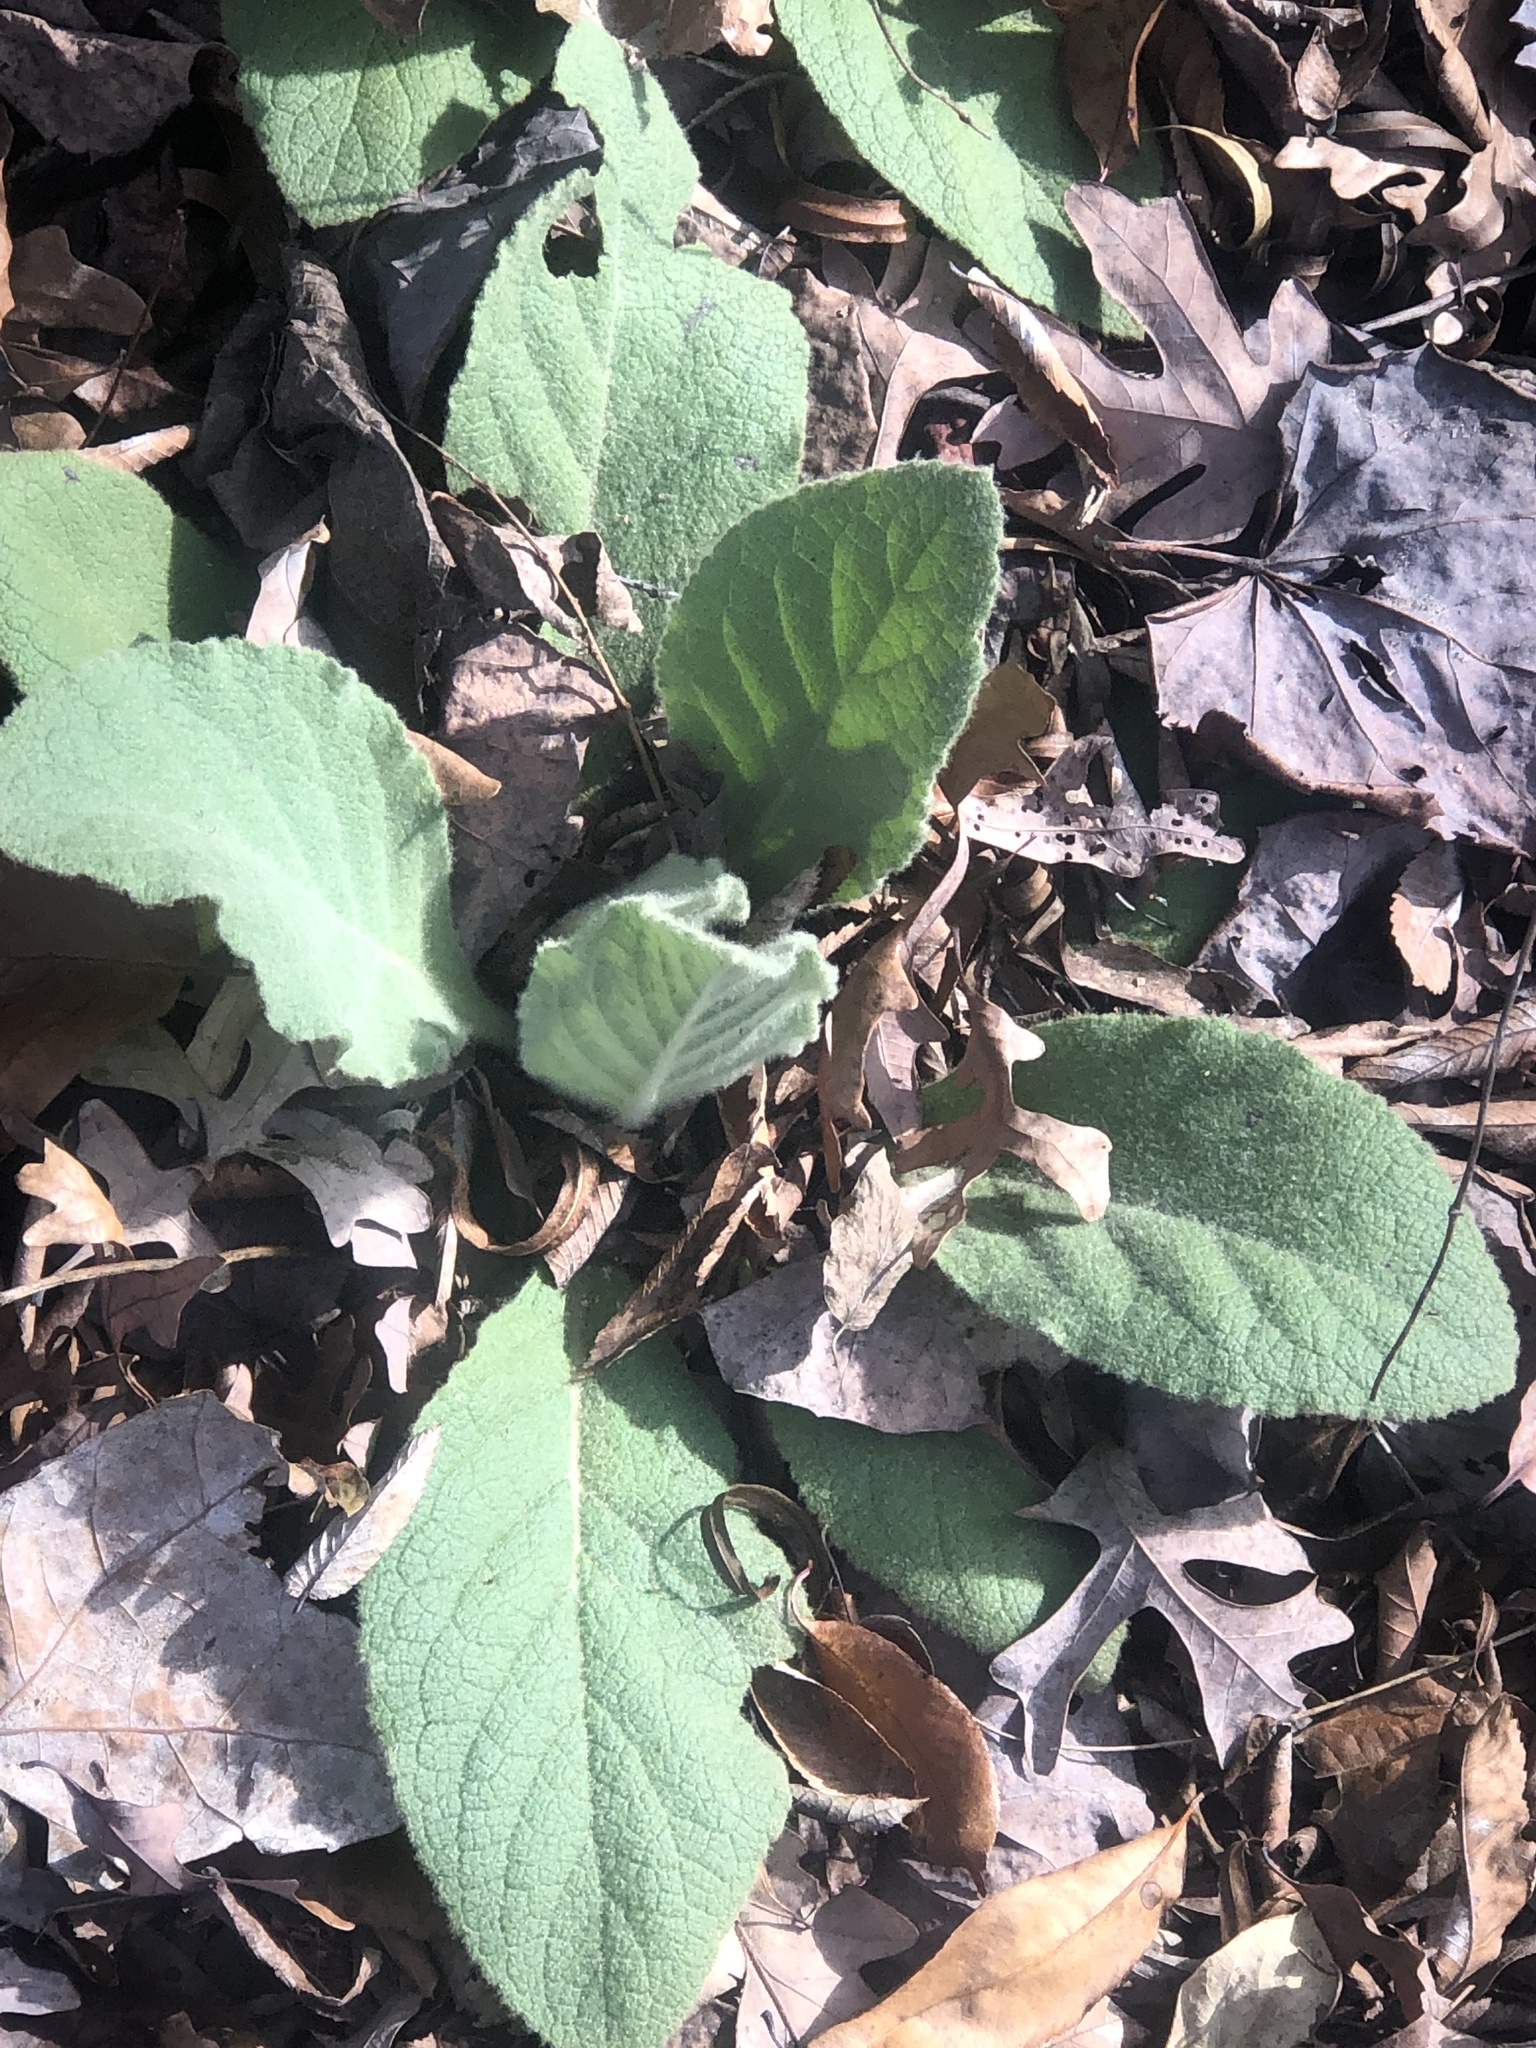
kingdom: Plantae
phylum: Tracheophyta
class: Magnoliopsida
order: Lamiales
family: Scrophulariaceae
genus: Verbascum
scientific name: Verbascum thapsus
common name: Common mullein
